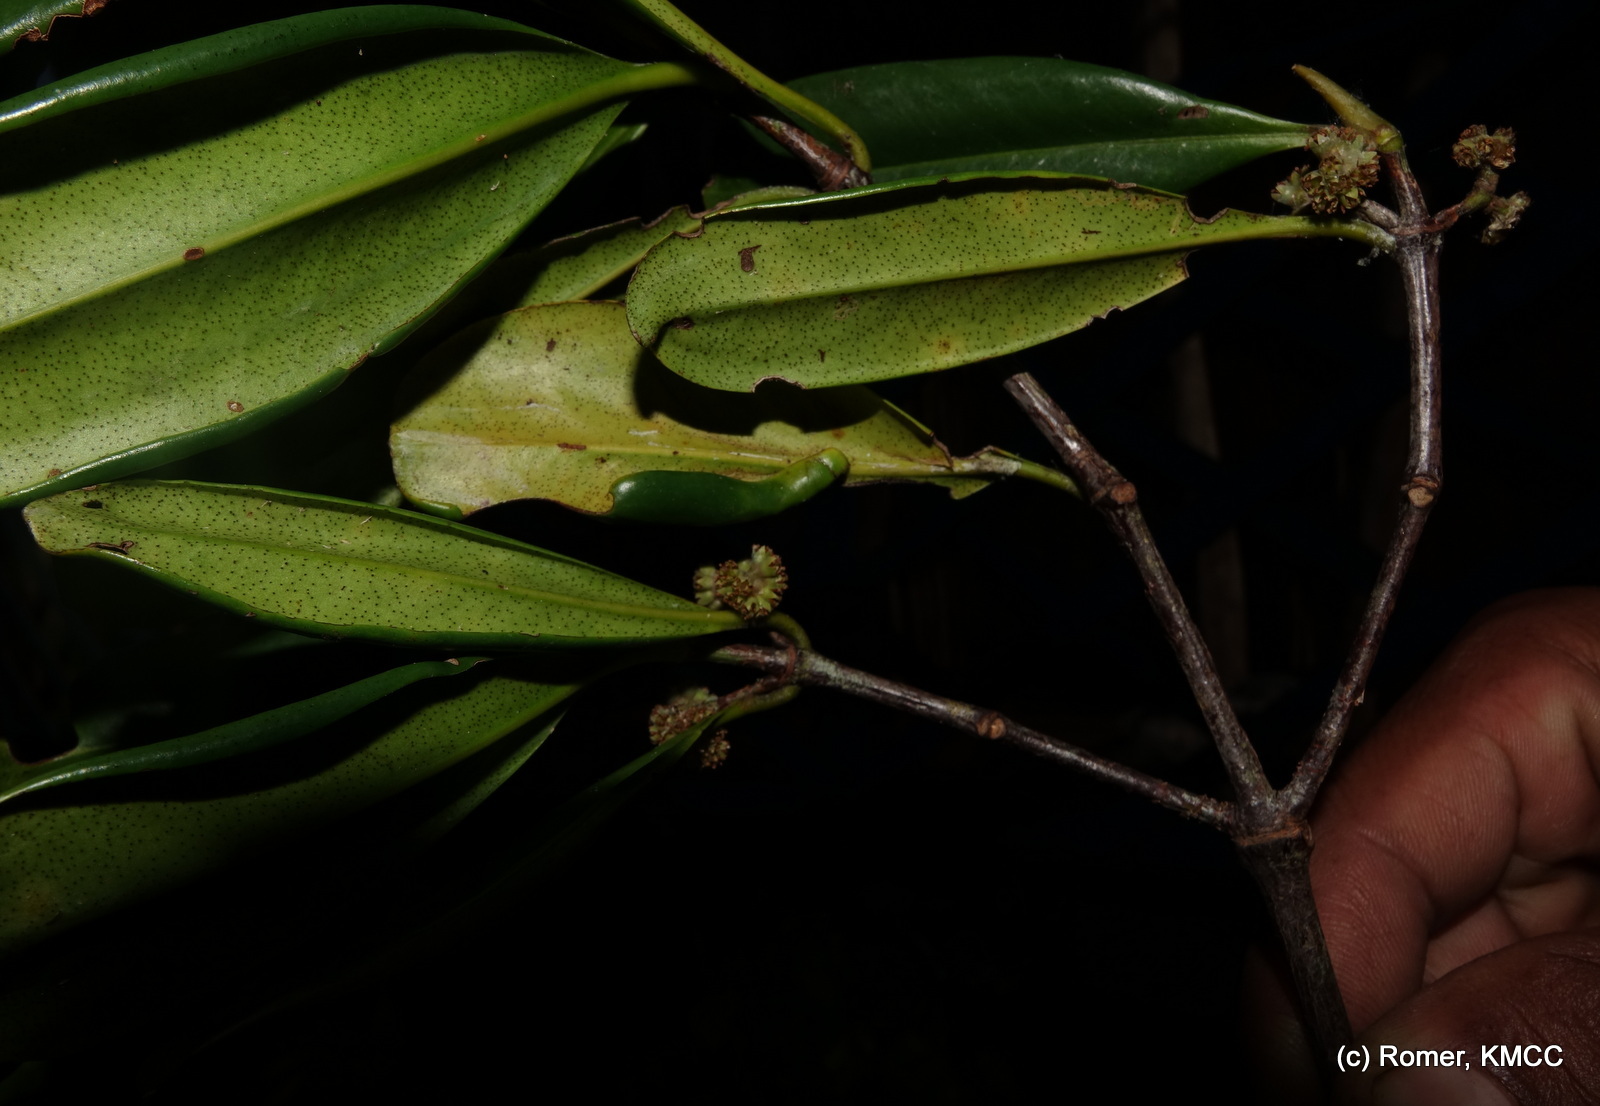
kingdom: Plantae
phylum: Tracheophyta
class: Magnoliopsida
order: Malpighiales
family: Rhizophoraceae
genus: Carallia
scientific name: Carallia brachiata
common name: Carallawood
